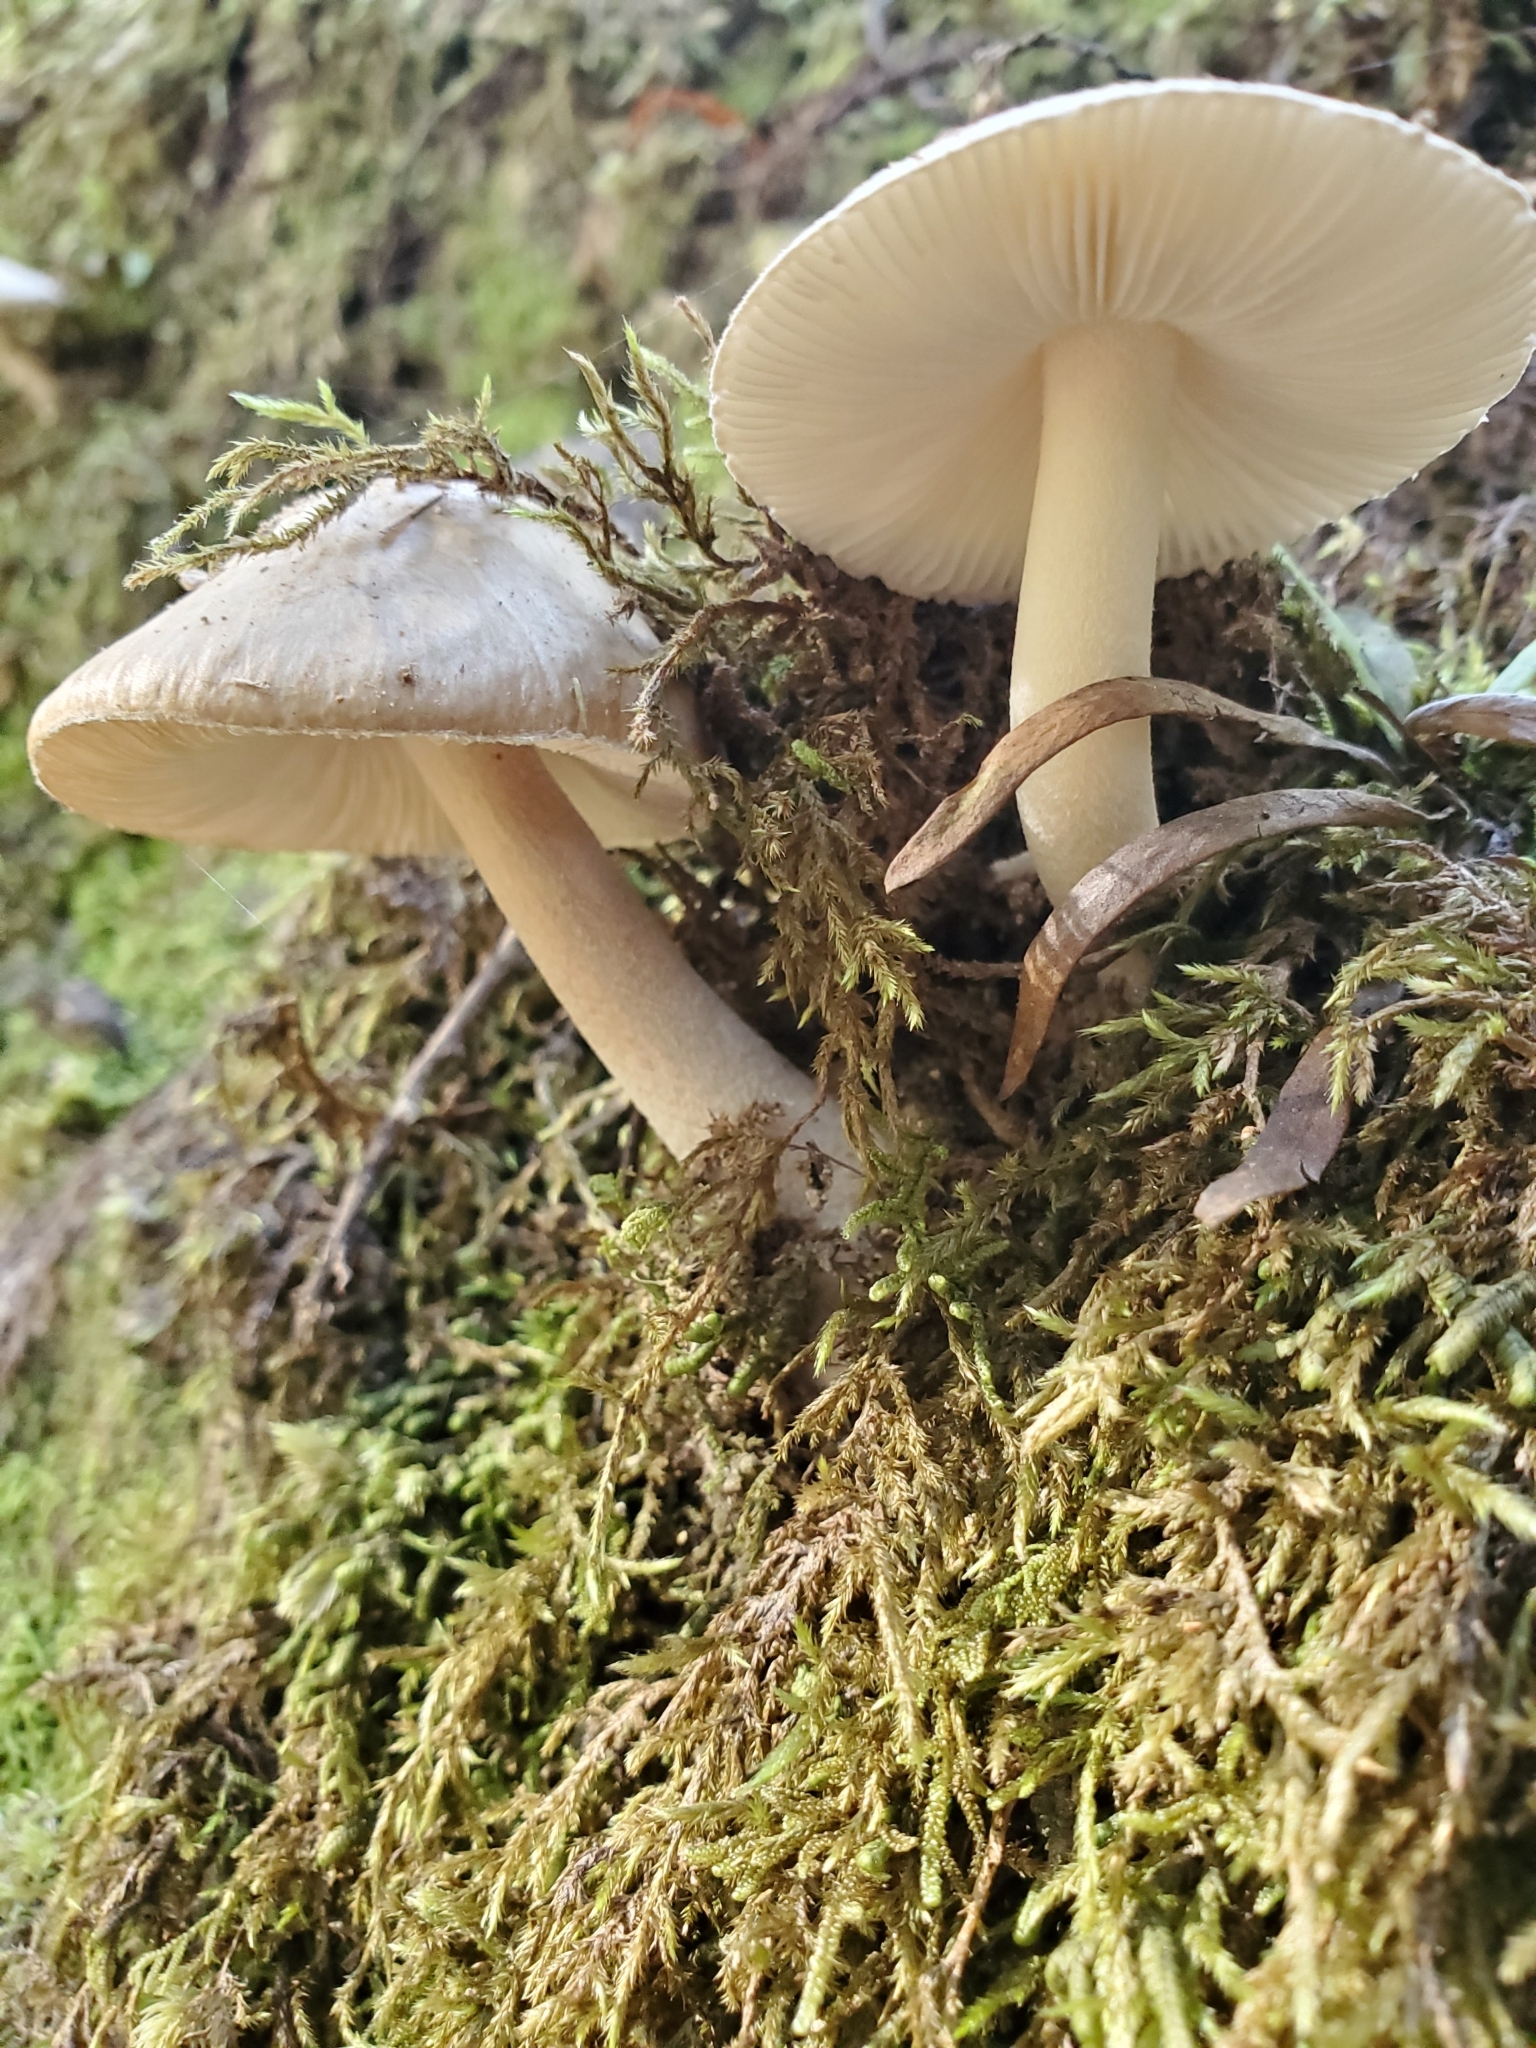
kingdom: Fungi
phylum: Basidiomycota
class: Agaricomycetes
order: Agaricales
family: Amanitaceae
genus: Amanita
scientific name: Amanita taiepa
